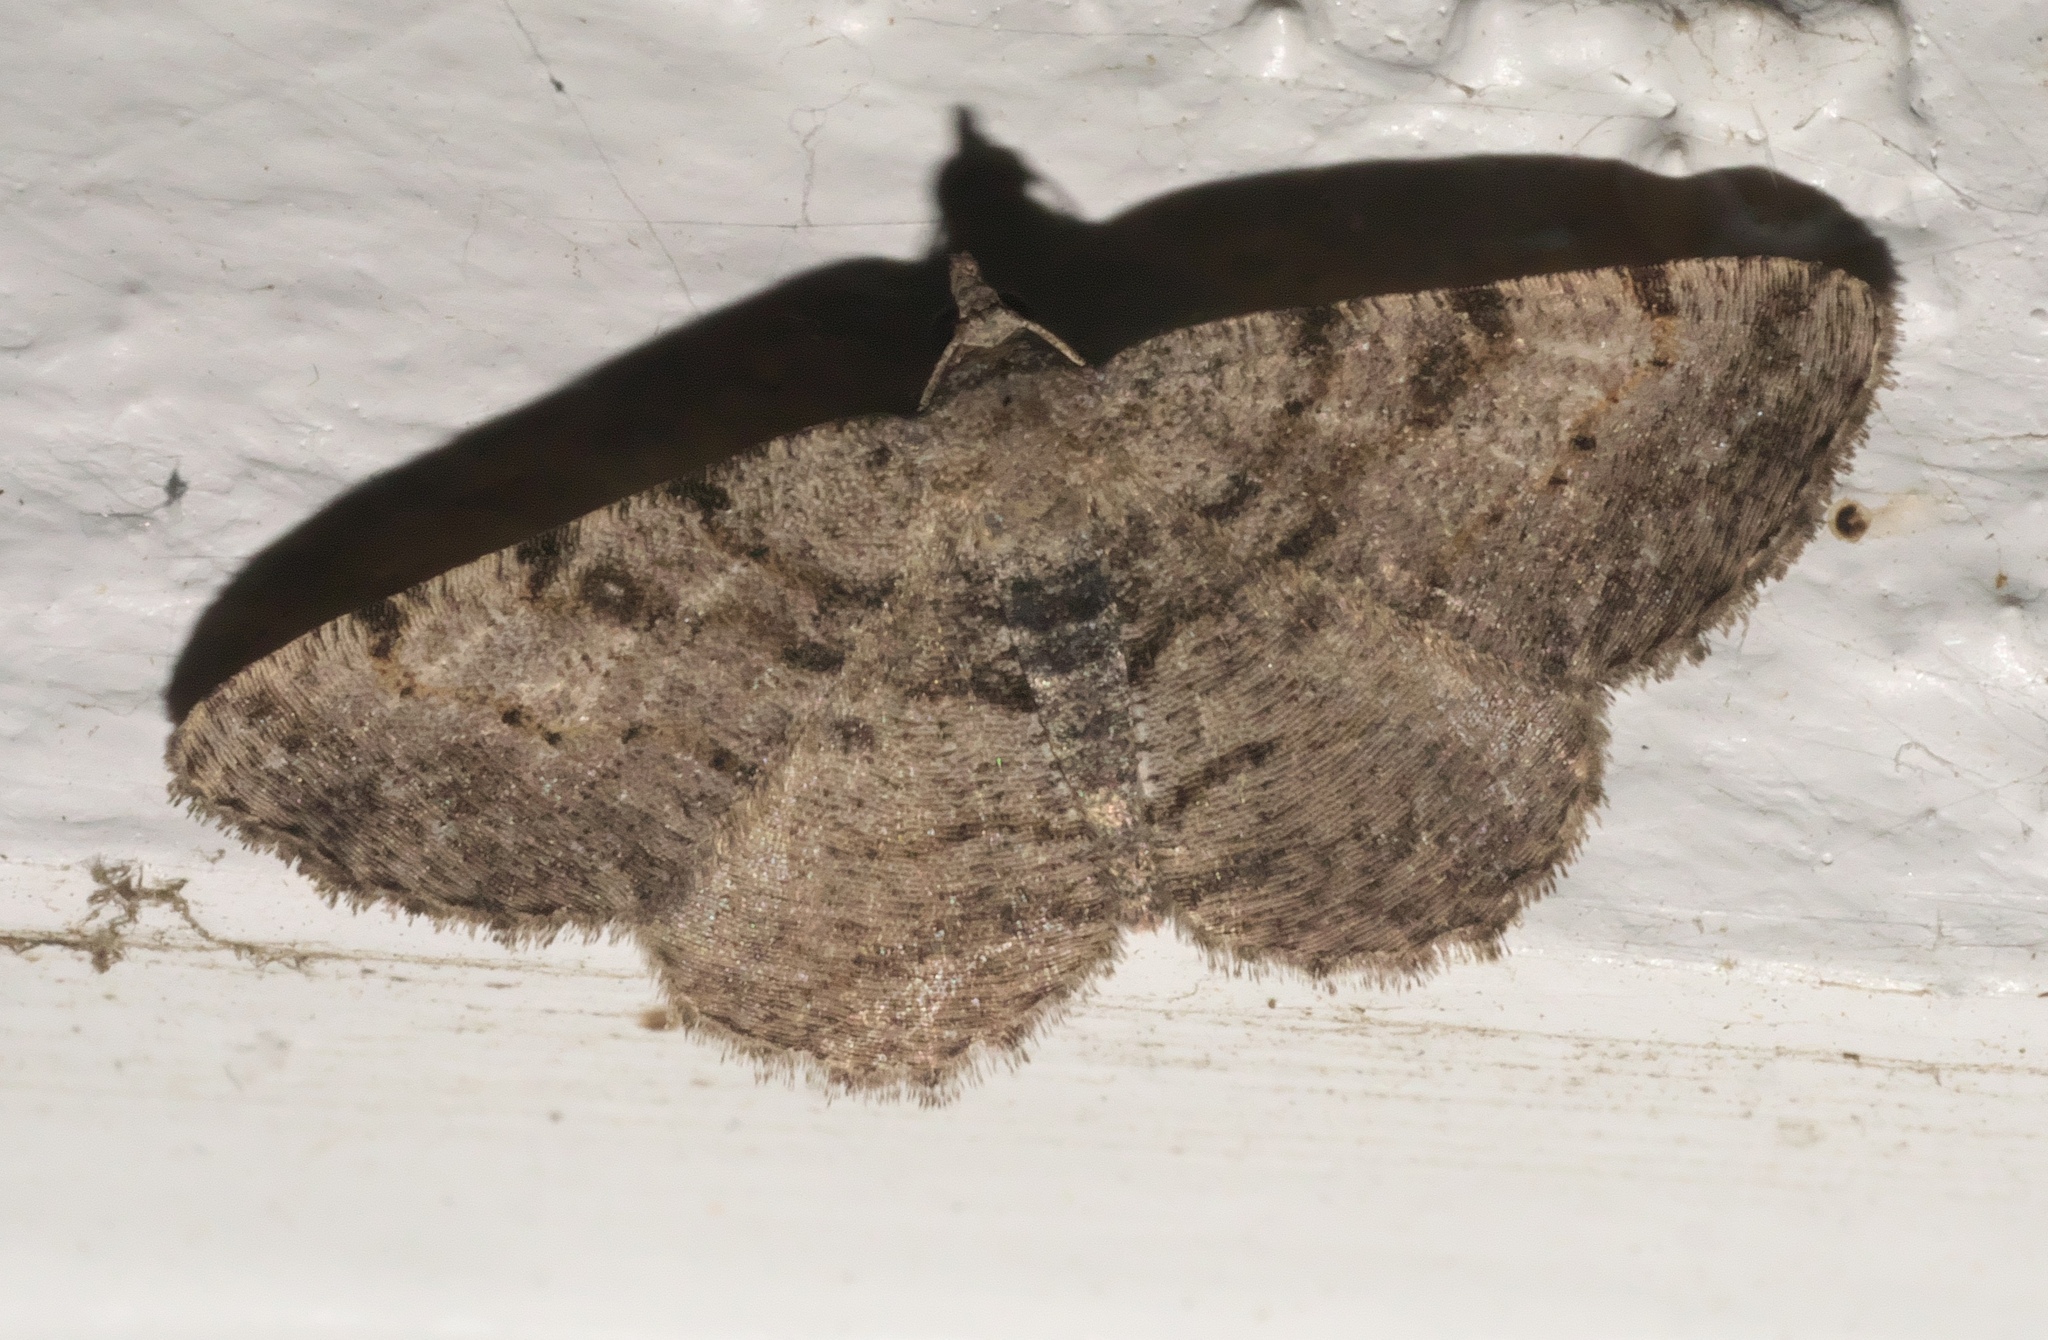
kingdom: Animalia
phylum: Arthropoda
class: Insecta
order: Lepidoptera
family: Geometridae
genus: Digrammia
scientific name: Digrammia gnophosaria
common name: Hollow-spotted angle
